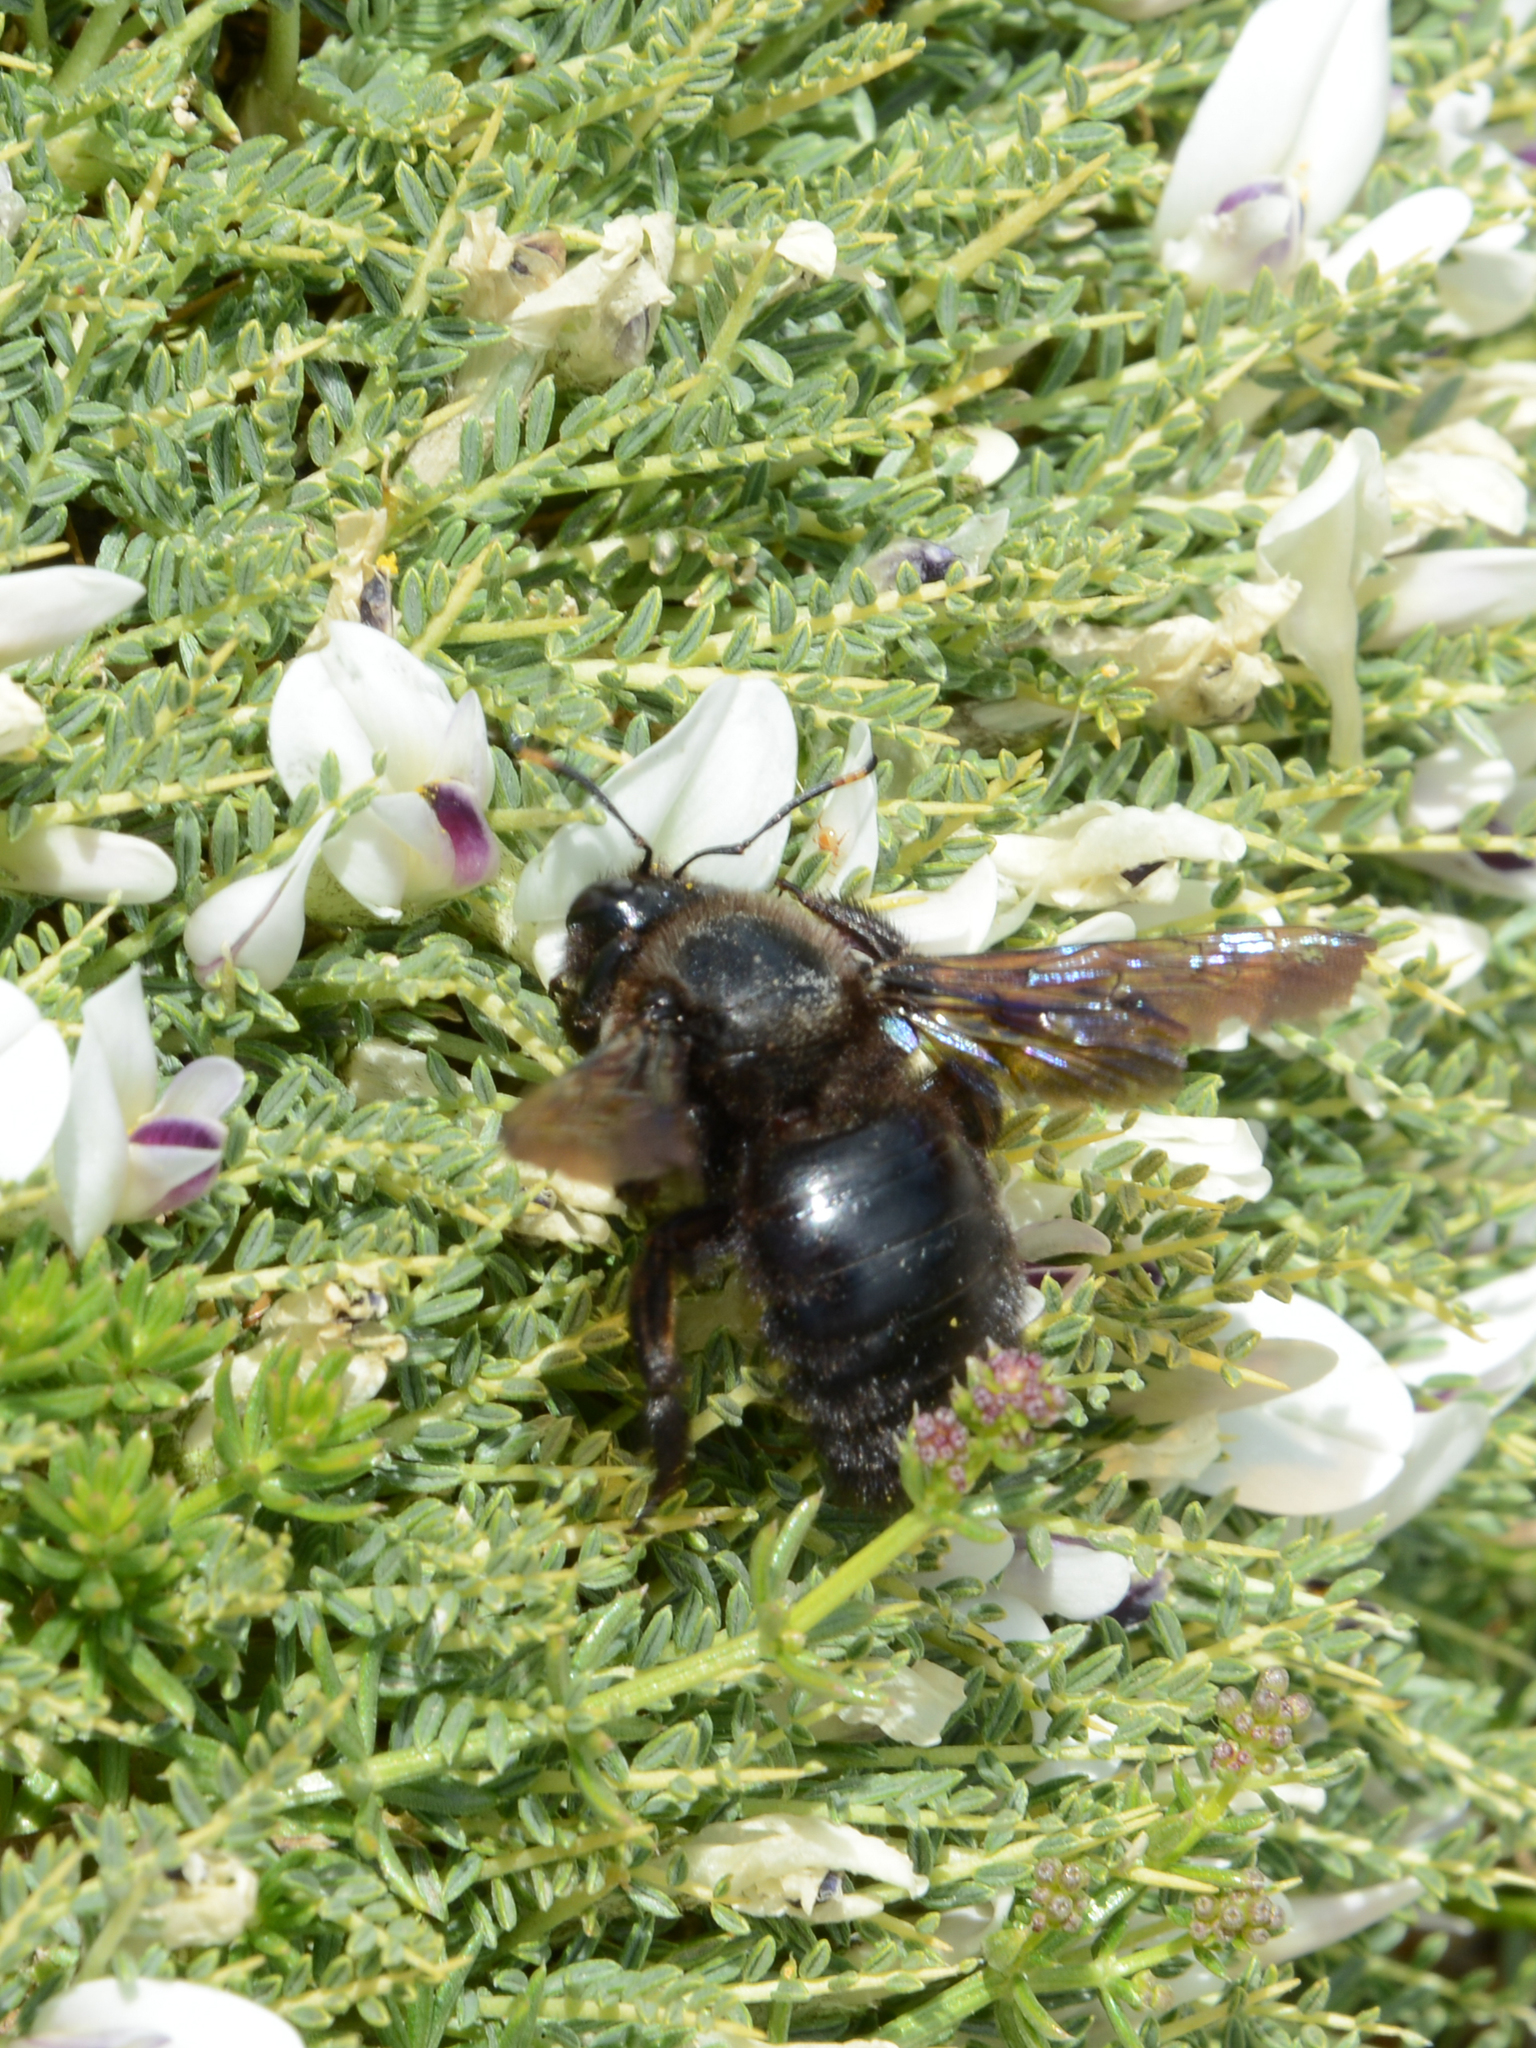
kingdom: Animalia
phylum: Arthropoda
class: Insecta
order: Hymenoptera
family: Apidae
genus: Xylocopa
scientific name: Xylocopa violacea
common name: Violet carpenter bee
